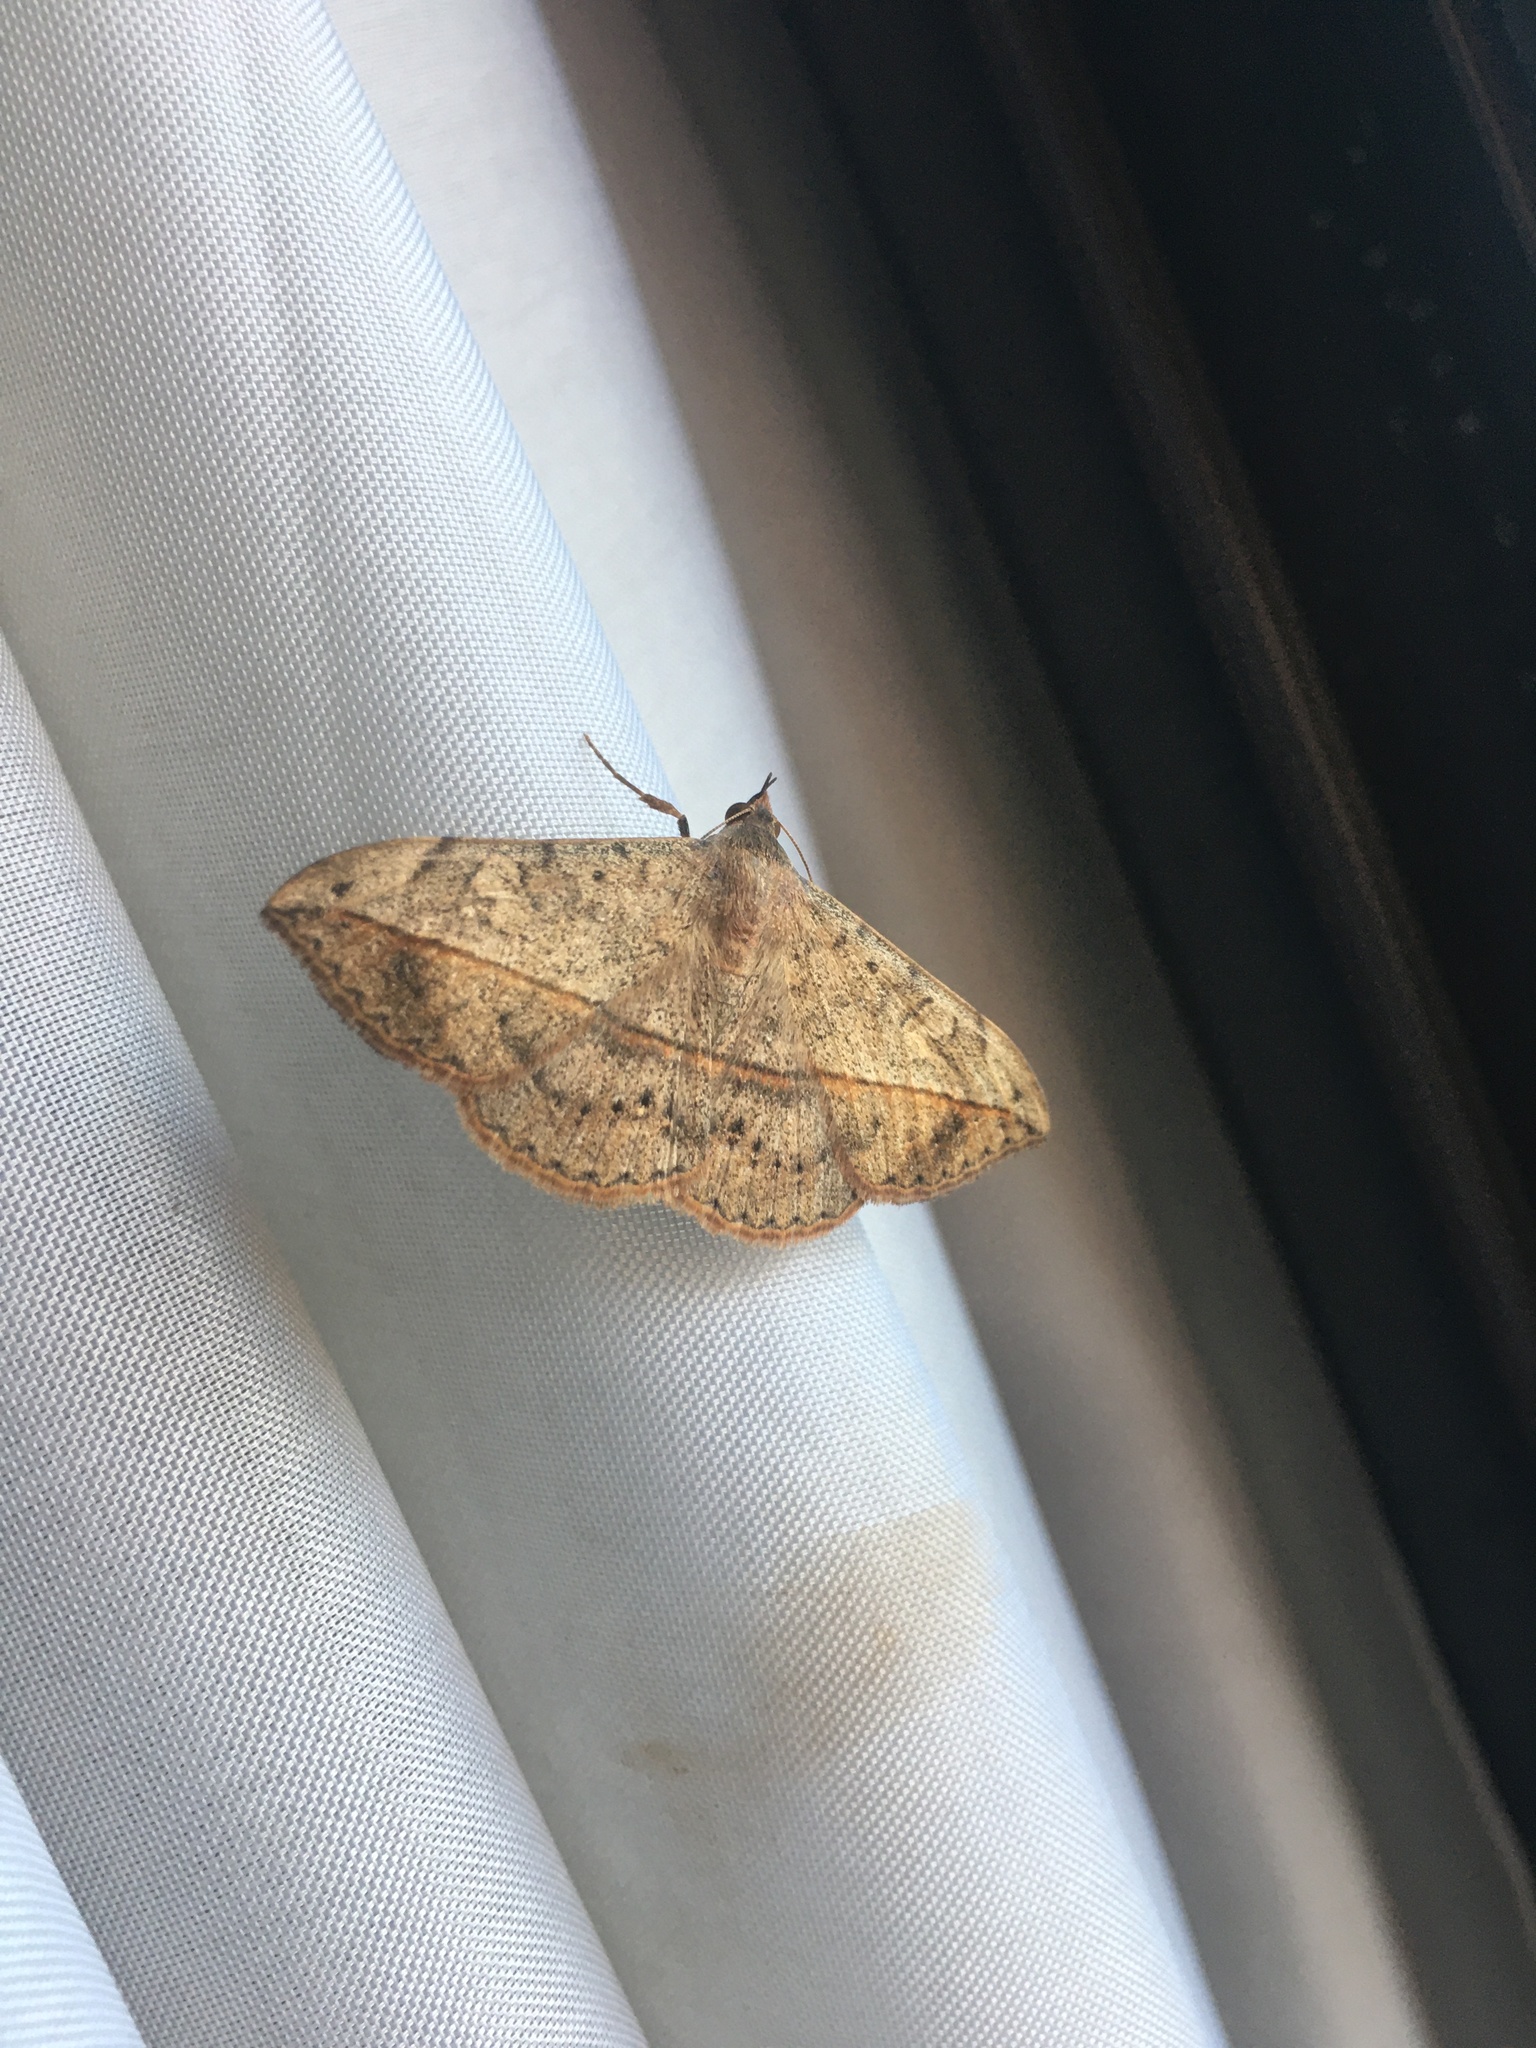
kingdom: Animalia
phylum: Arthropoda
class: Insecta
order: Lepidoptera
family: Erebidae
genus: Anticarsia
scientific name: Anticarsia gemmatalis
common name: Cutworm moth
